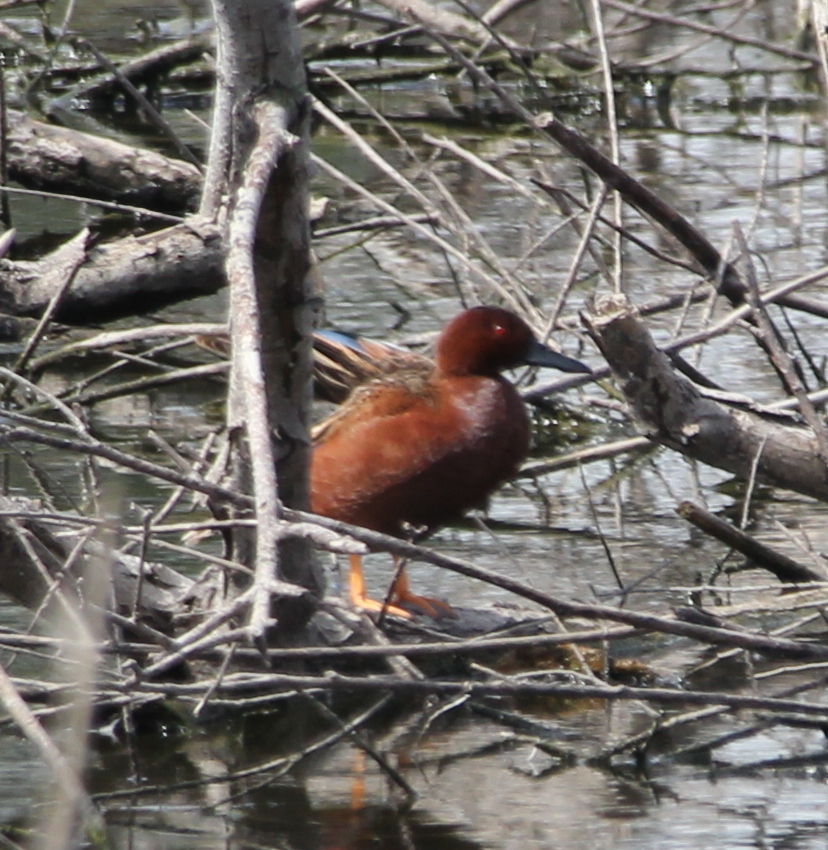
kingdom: Animalia
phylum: Chordata
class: Aves
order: Anseriformes
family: Anatidae
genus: Spatula
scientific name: Spatula cyanoptera
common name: Cinnamon teal
